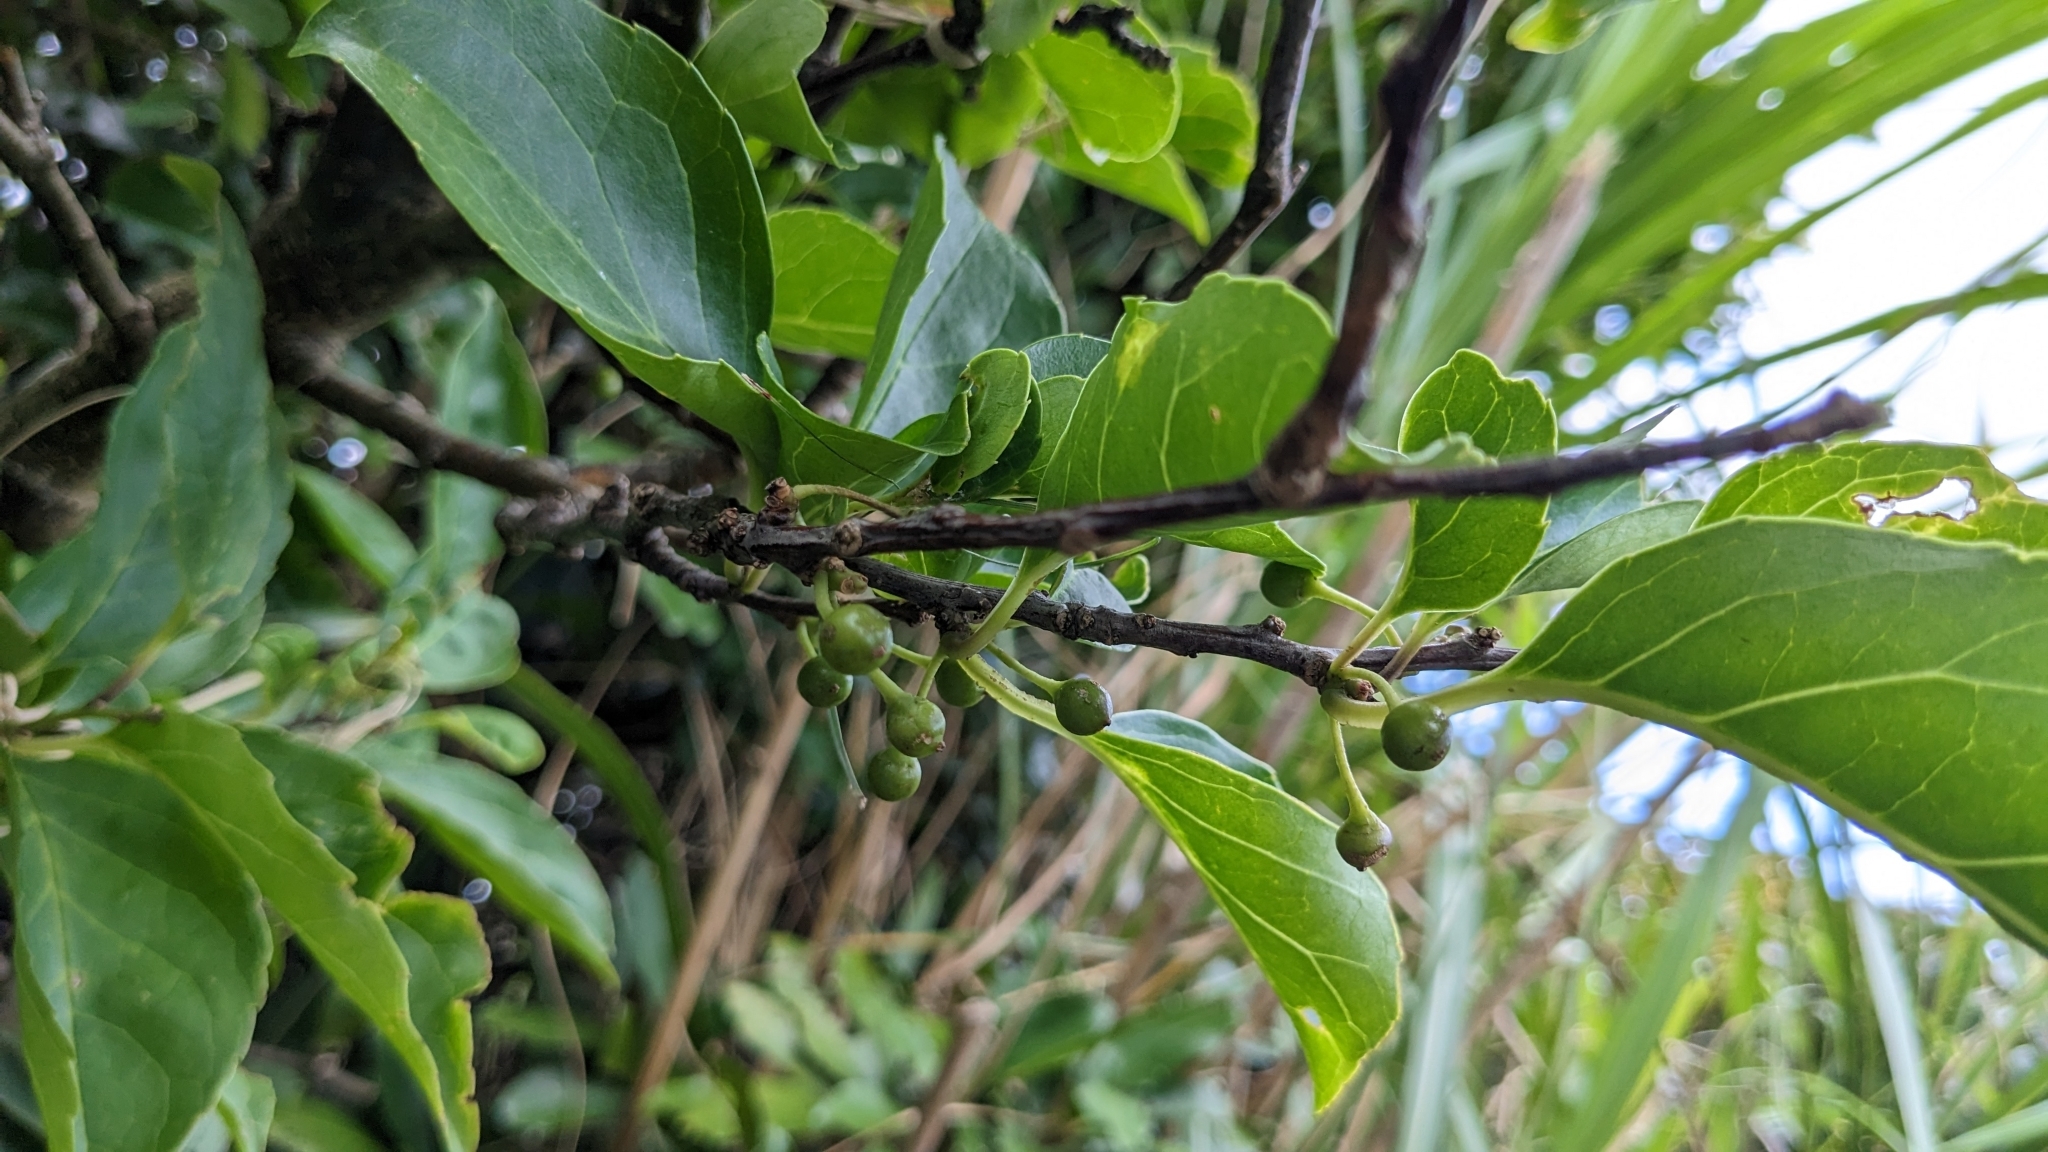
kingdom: Plantae
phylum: Tracheophyta
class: Magnoliopsida
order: Aquifoliales
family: Aquifoliaceae
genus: Ilex
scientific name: Ilex kusanoi
